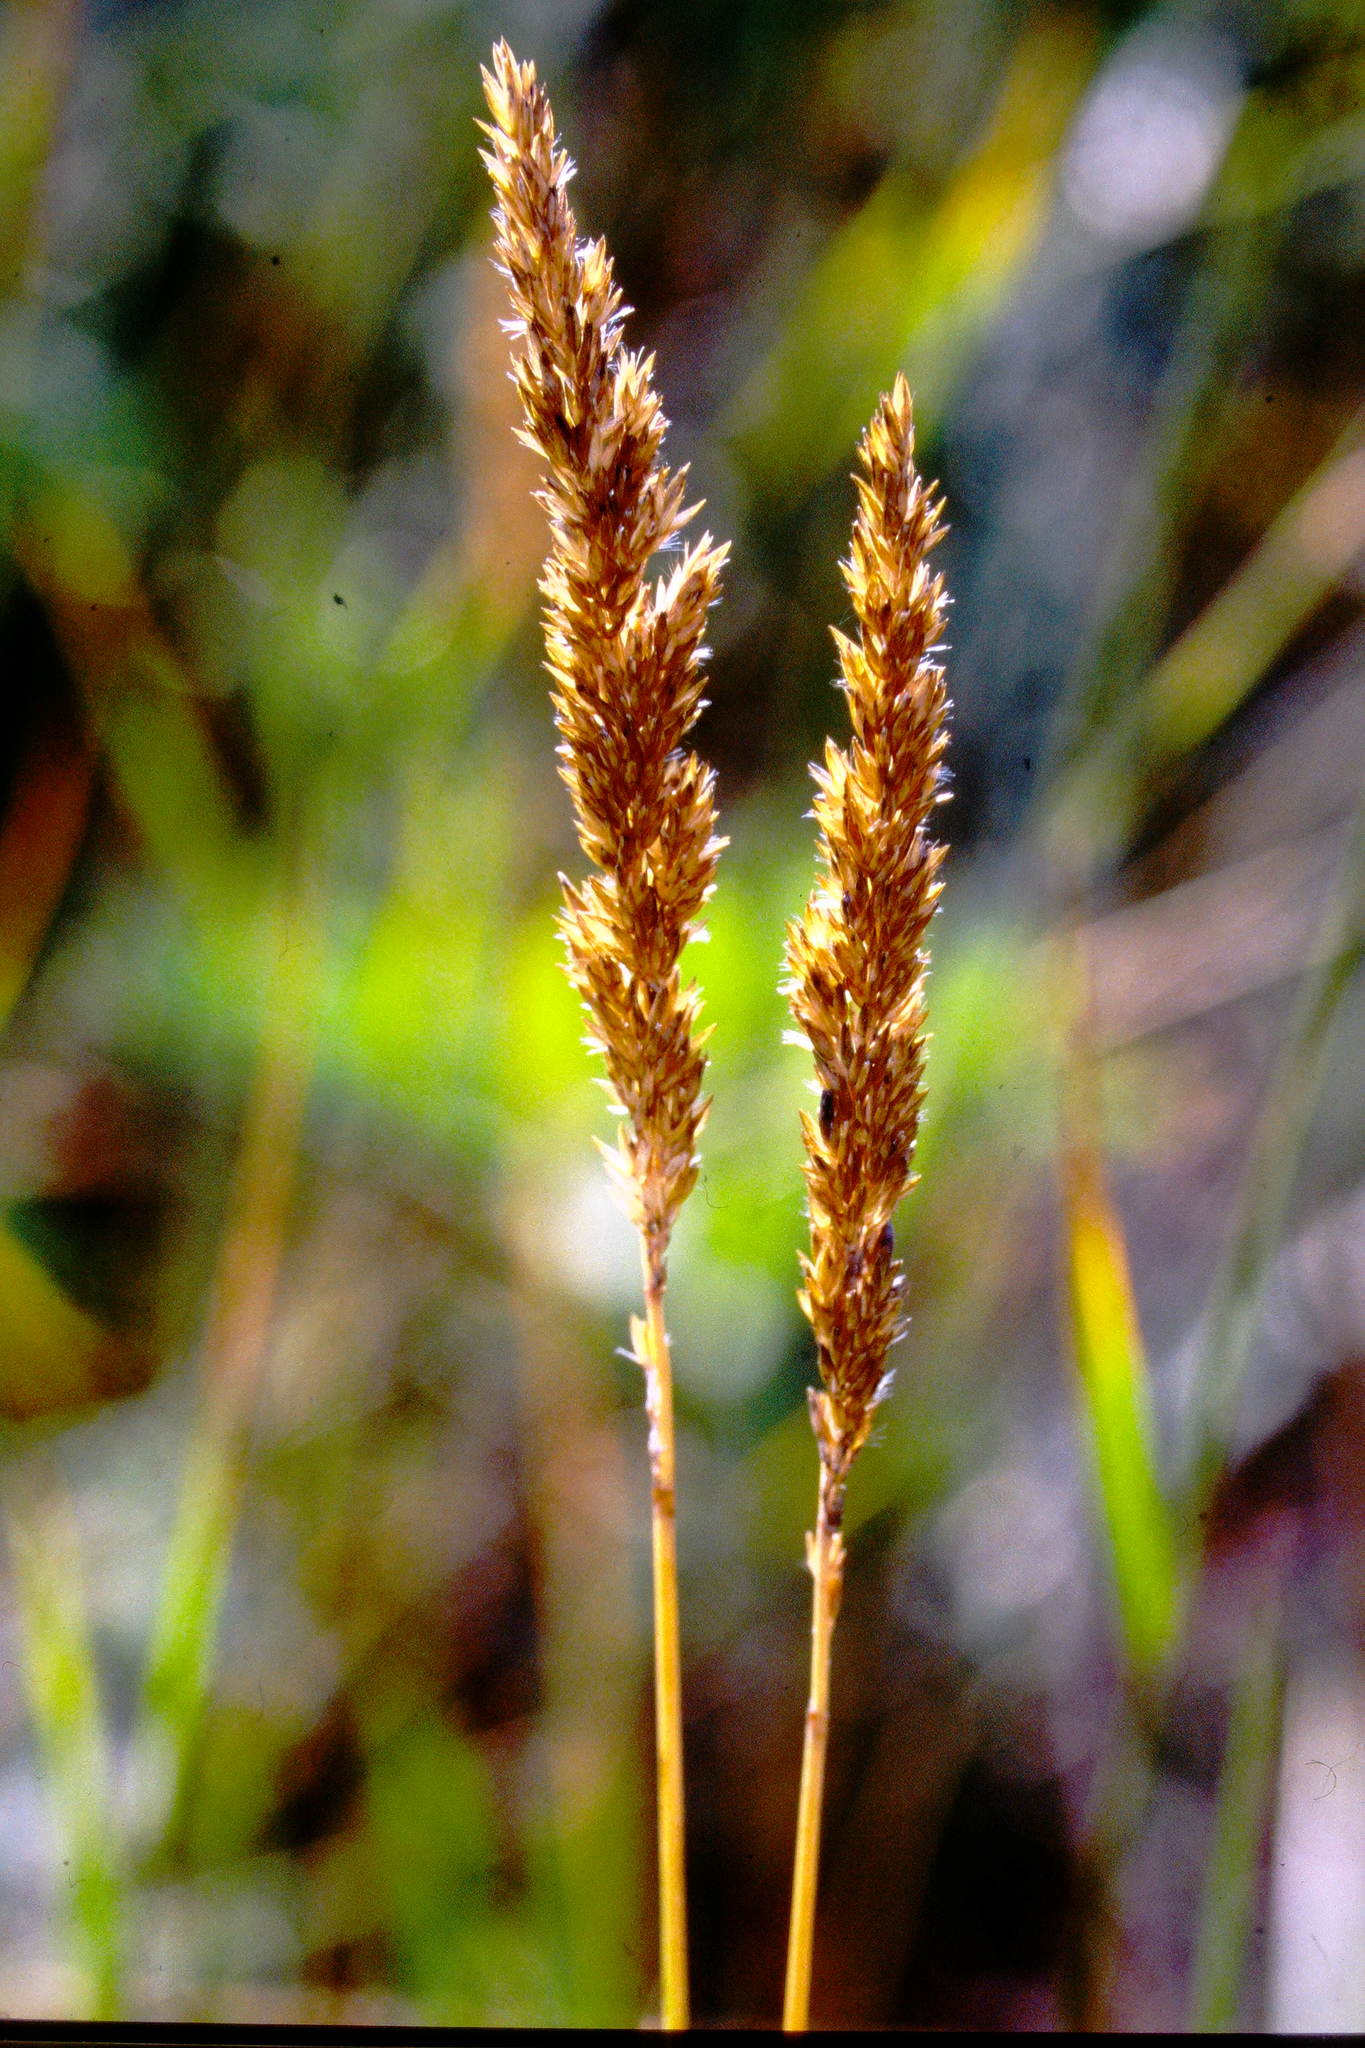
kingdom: Plantae
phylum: Tracheophyta
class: Liliopsida
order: Poales
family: Poaceae
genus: Calamagrostis
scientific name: Calamagrostis stricta
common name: Narrow small-reed
